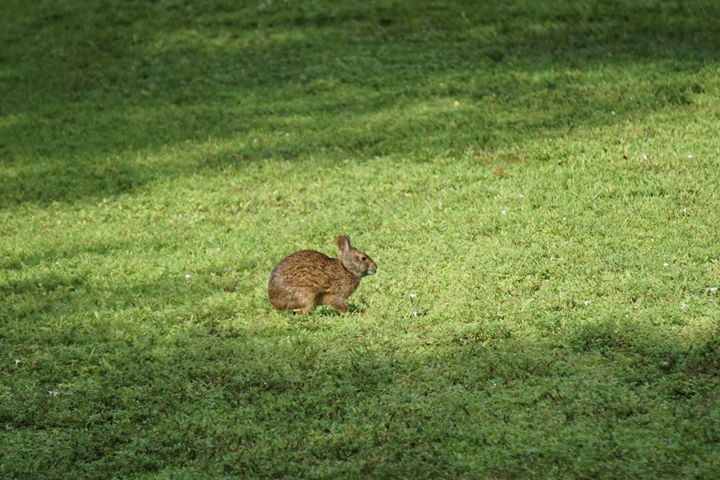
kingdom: Animalia
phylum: Chordata
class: Mammalia
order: Lagomorpha
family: Leporidae
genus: Sylvilagus
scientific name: Sylvilagus palustris
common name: Marsh rabbit
